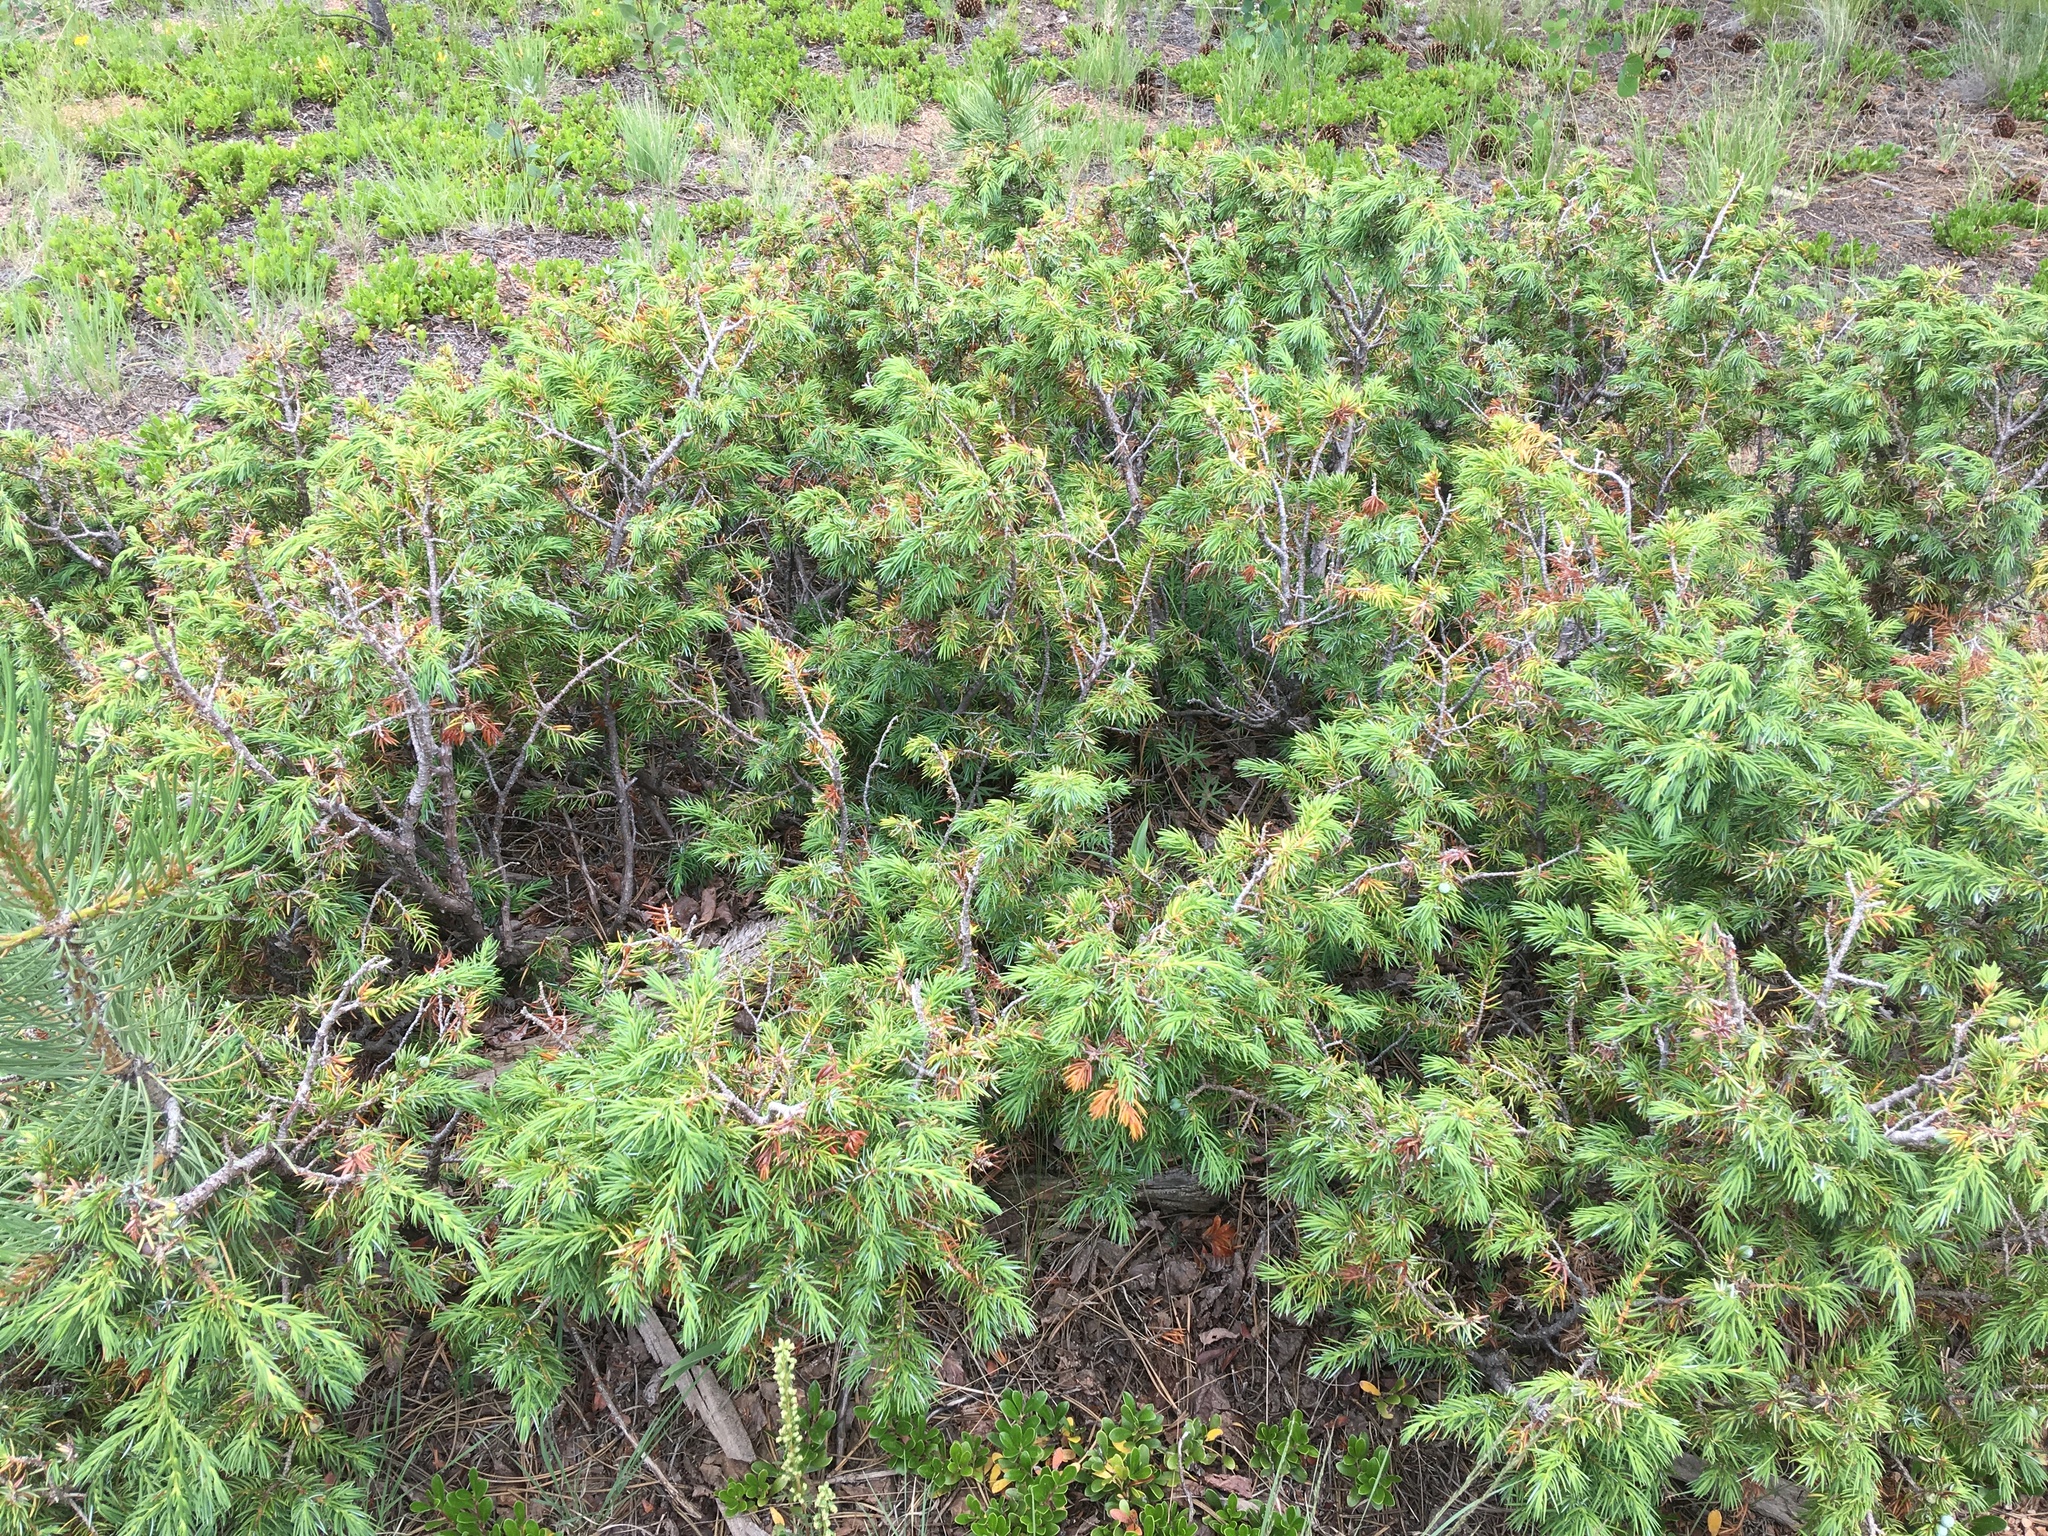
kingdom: Plantae
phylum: Tracheophyta
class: Pinopsida
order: Pinales
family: Cupressaceae
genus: Juniperus
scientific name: Juniperus communis
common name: Common juniper
